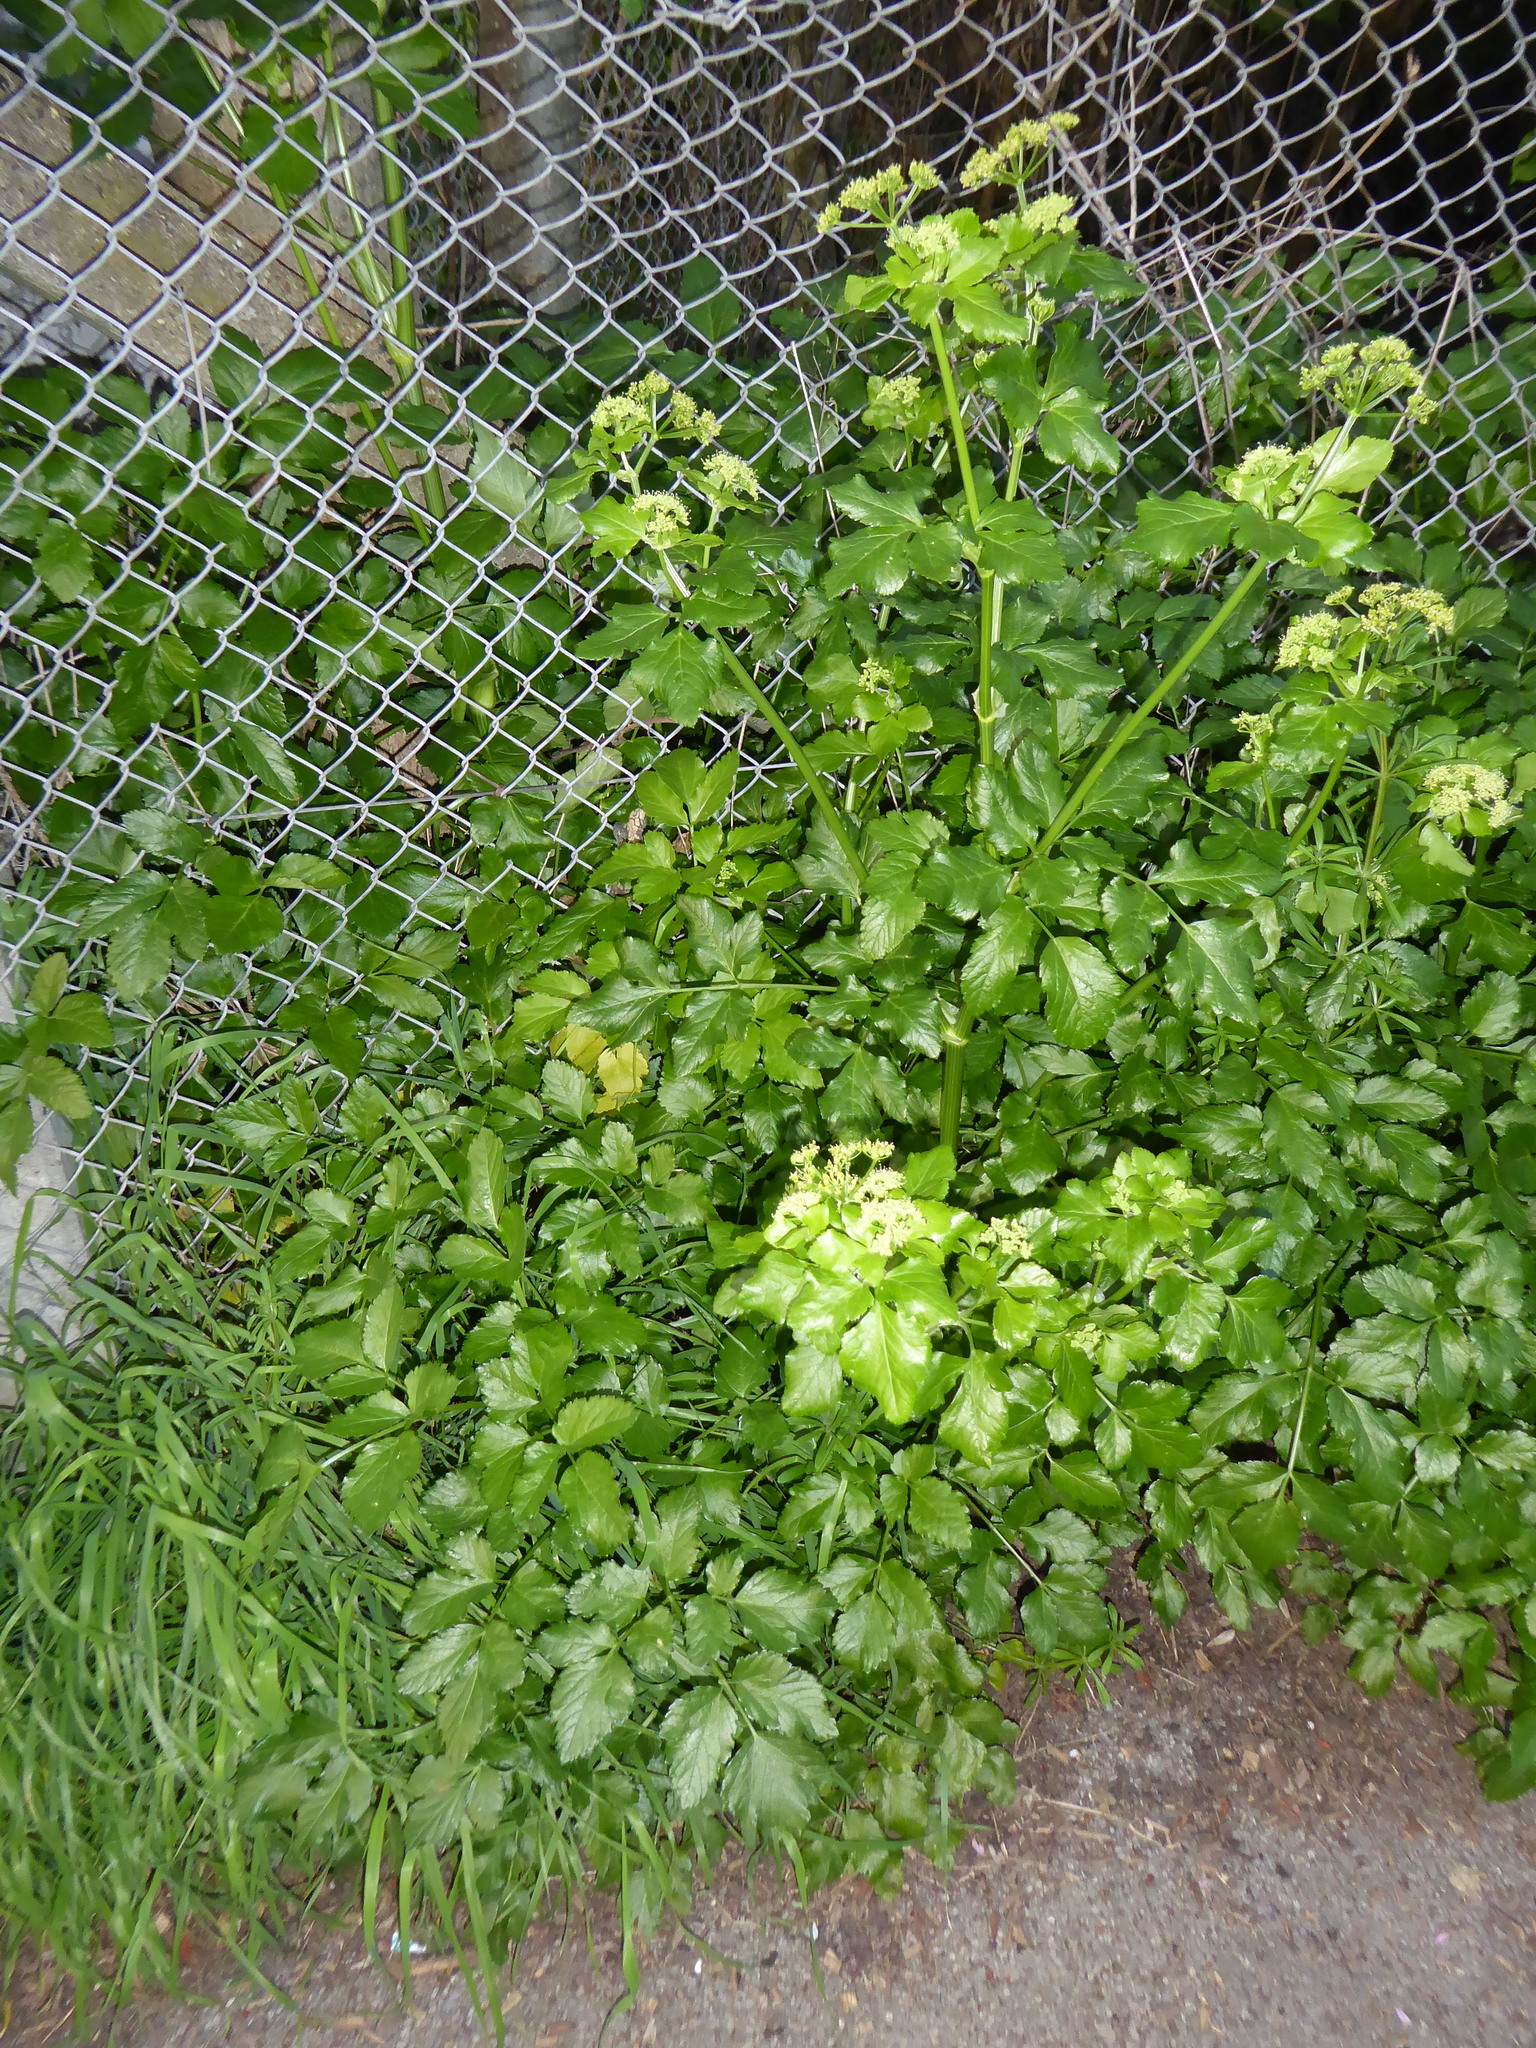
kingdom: Plantae
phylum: Tracheophyta
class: Magnoliopsida
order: Apiales
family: Apiaceae
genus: Smyrnium
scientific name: Smyrnium olusatrum
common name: Alexanders
